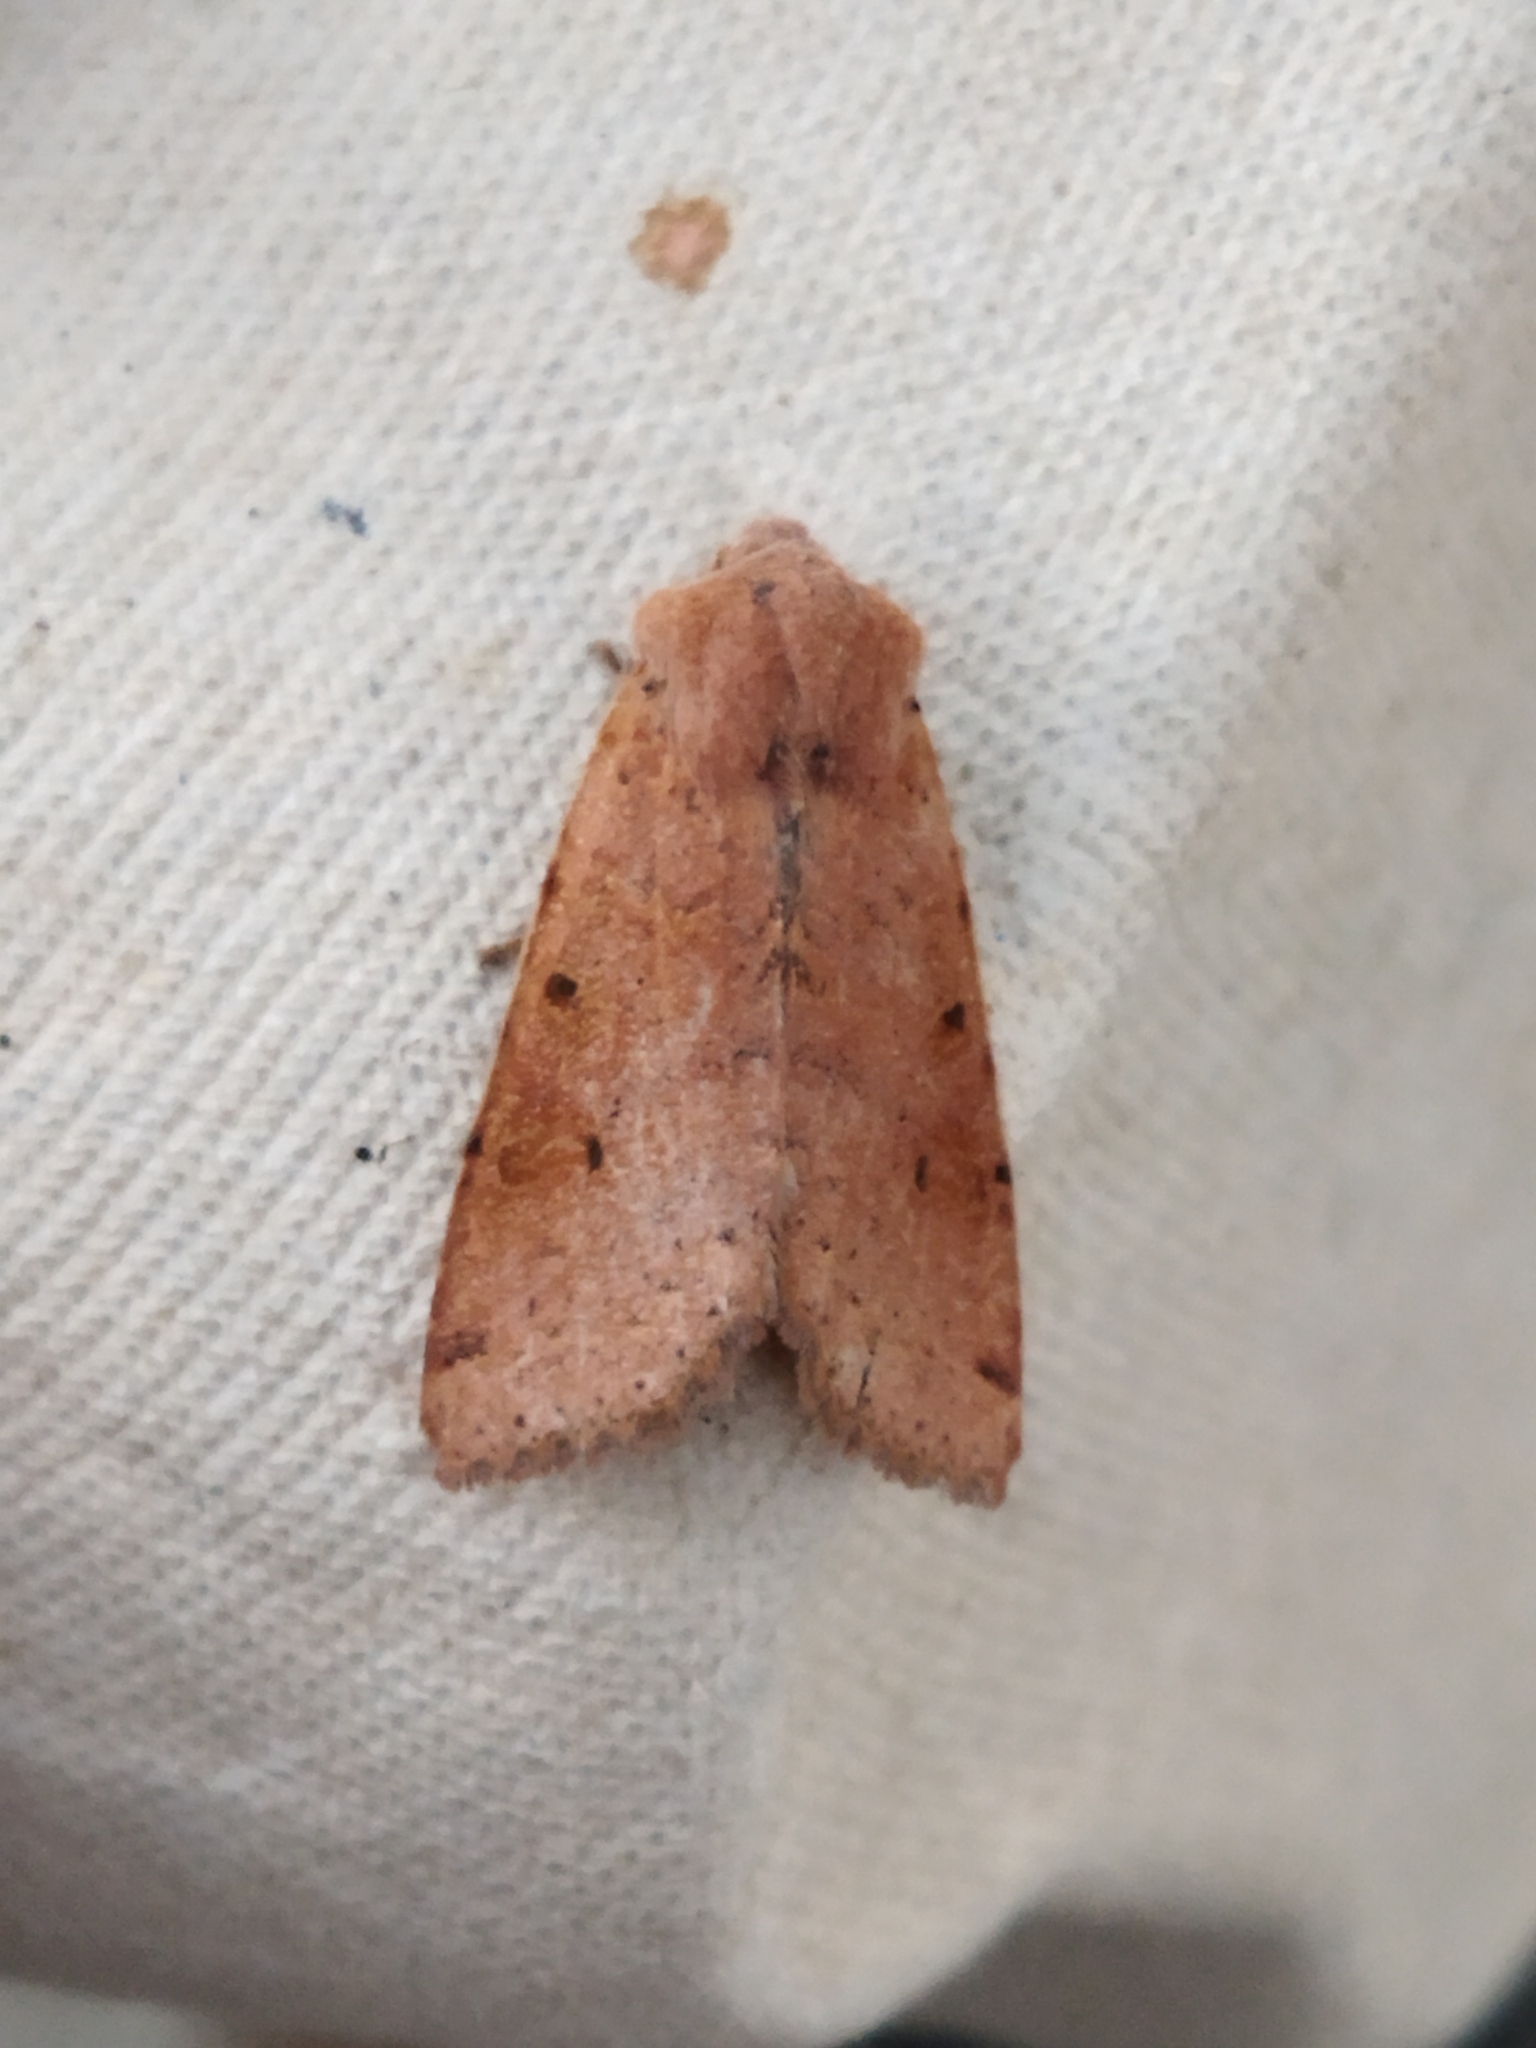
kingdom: Animalia
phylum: Arthropoda
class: Insecta
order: Lepidoptera
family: Noctuidae
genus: Agrochola
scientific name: Agrochola lychnidis
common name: Beaded chestnut
